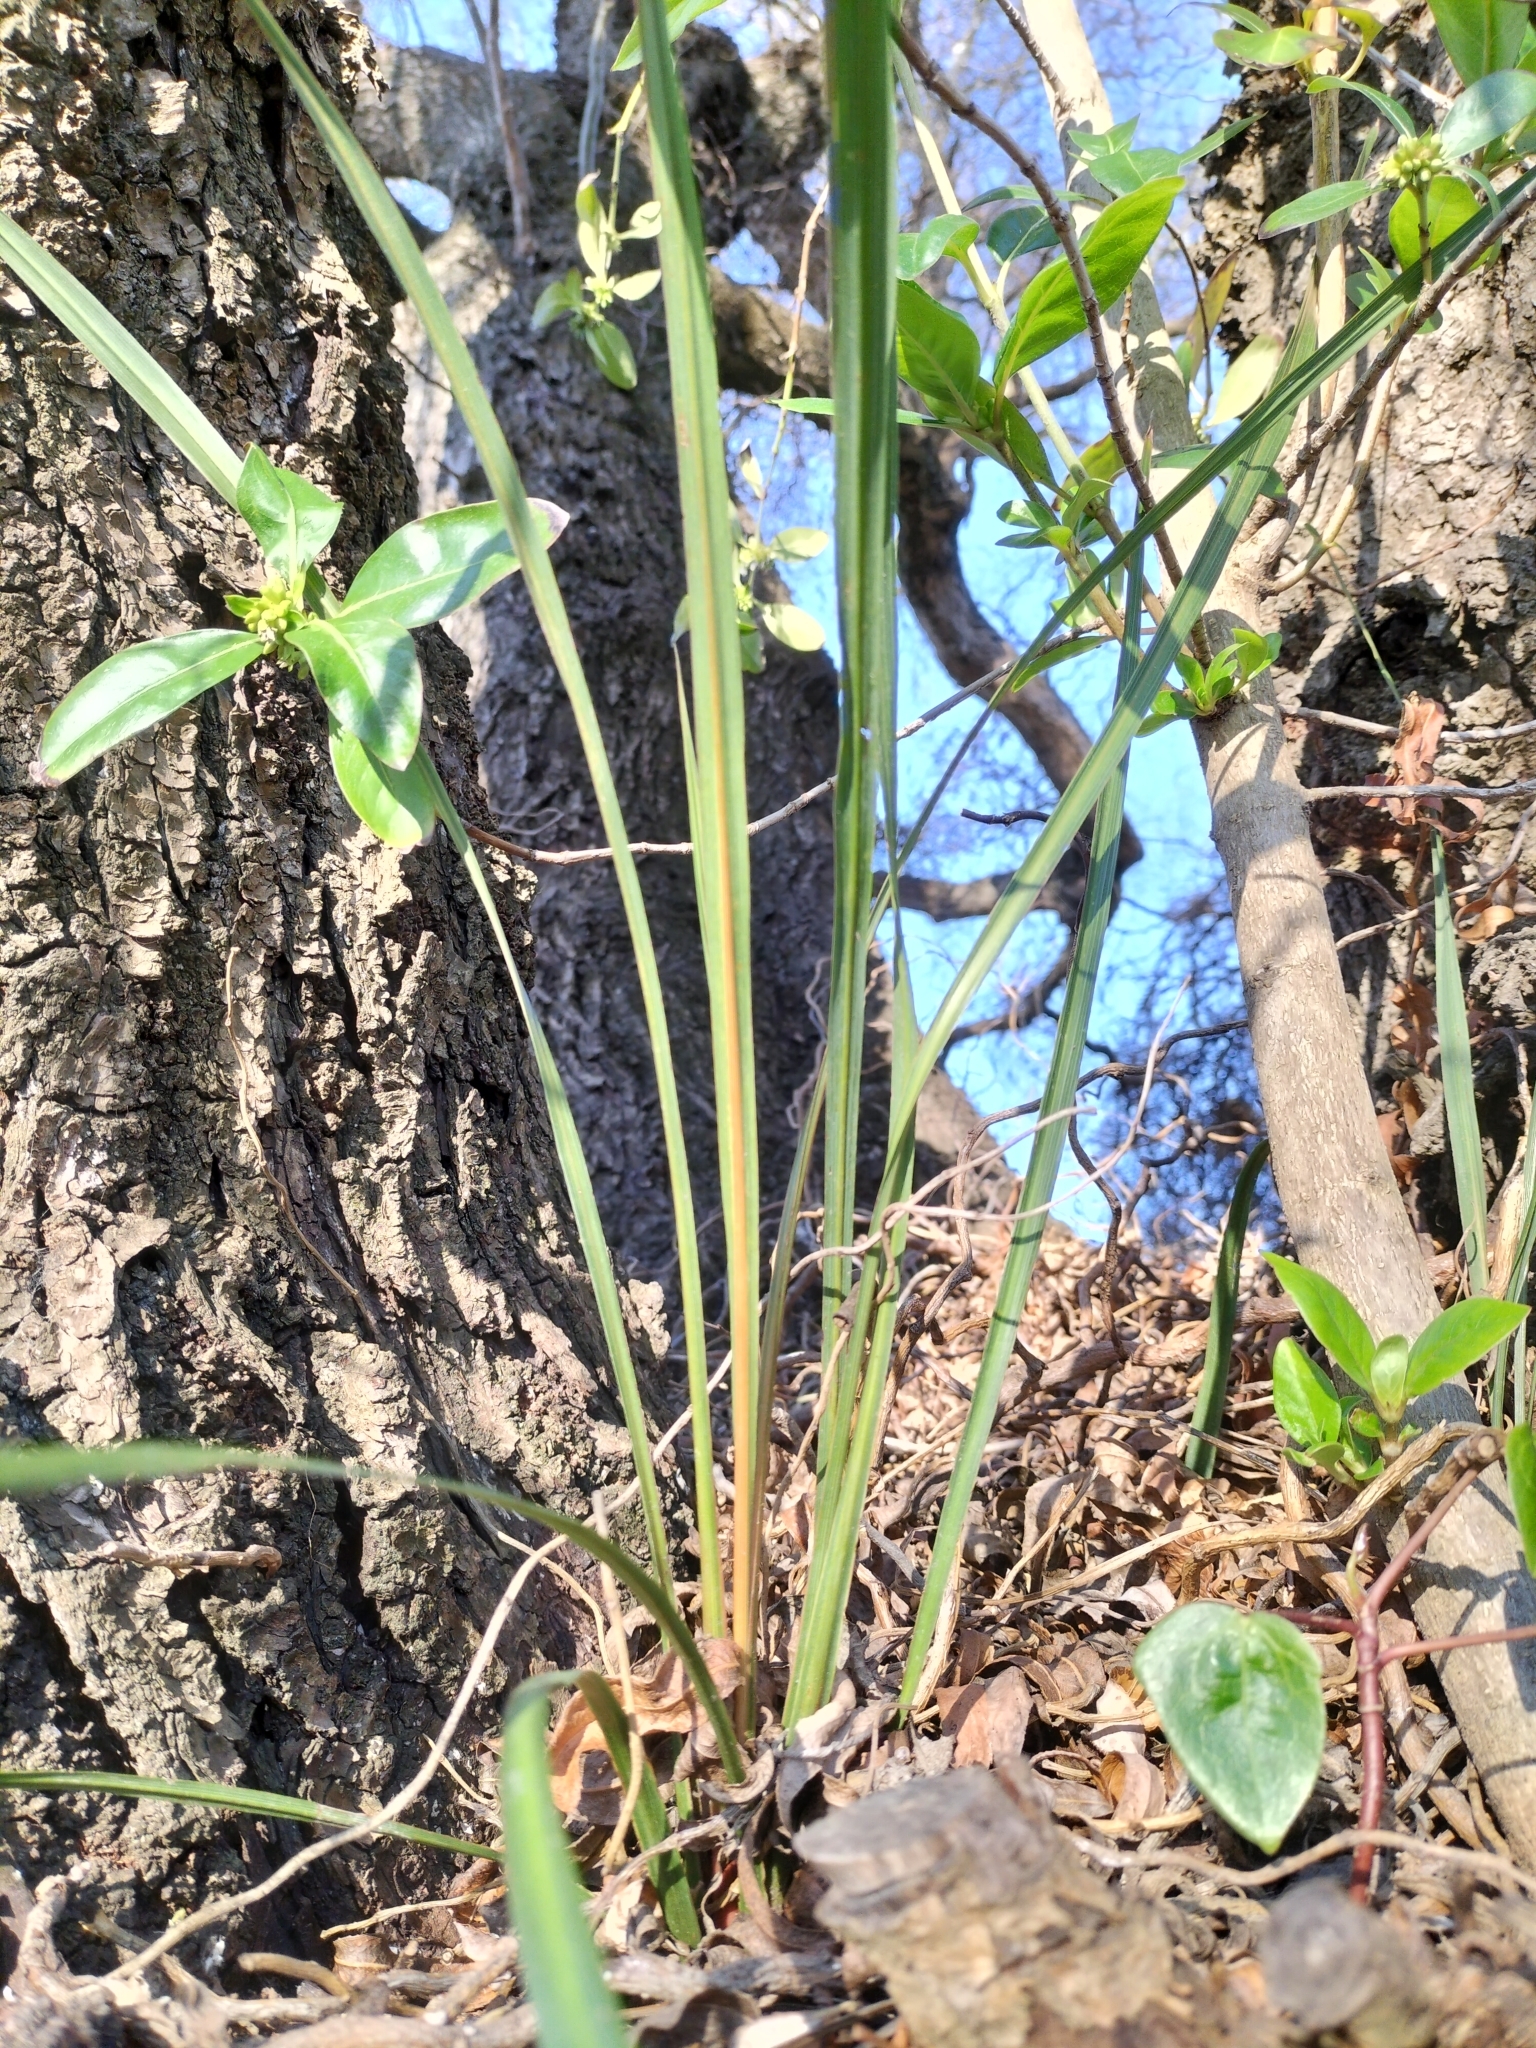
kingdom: Plantae
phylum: Tracheophyta
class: Liliopsida
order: Asparagales
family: Asparagaceae
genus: Cordyline
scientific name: Cordyline australis
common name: Cabbage-palm
